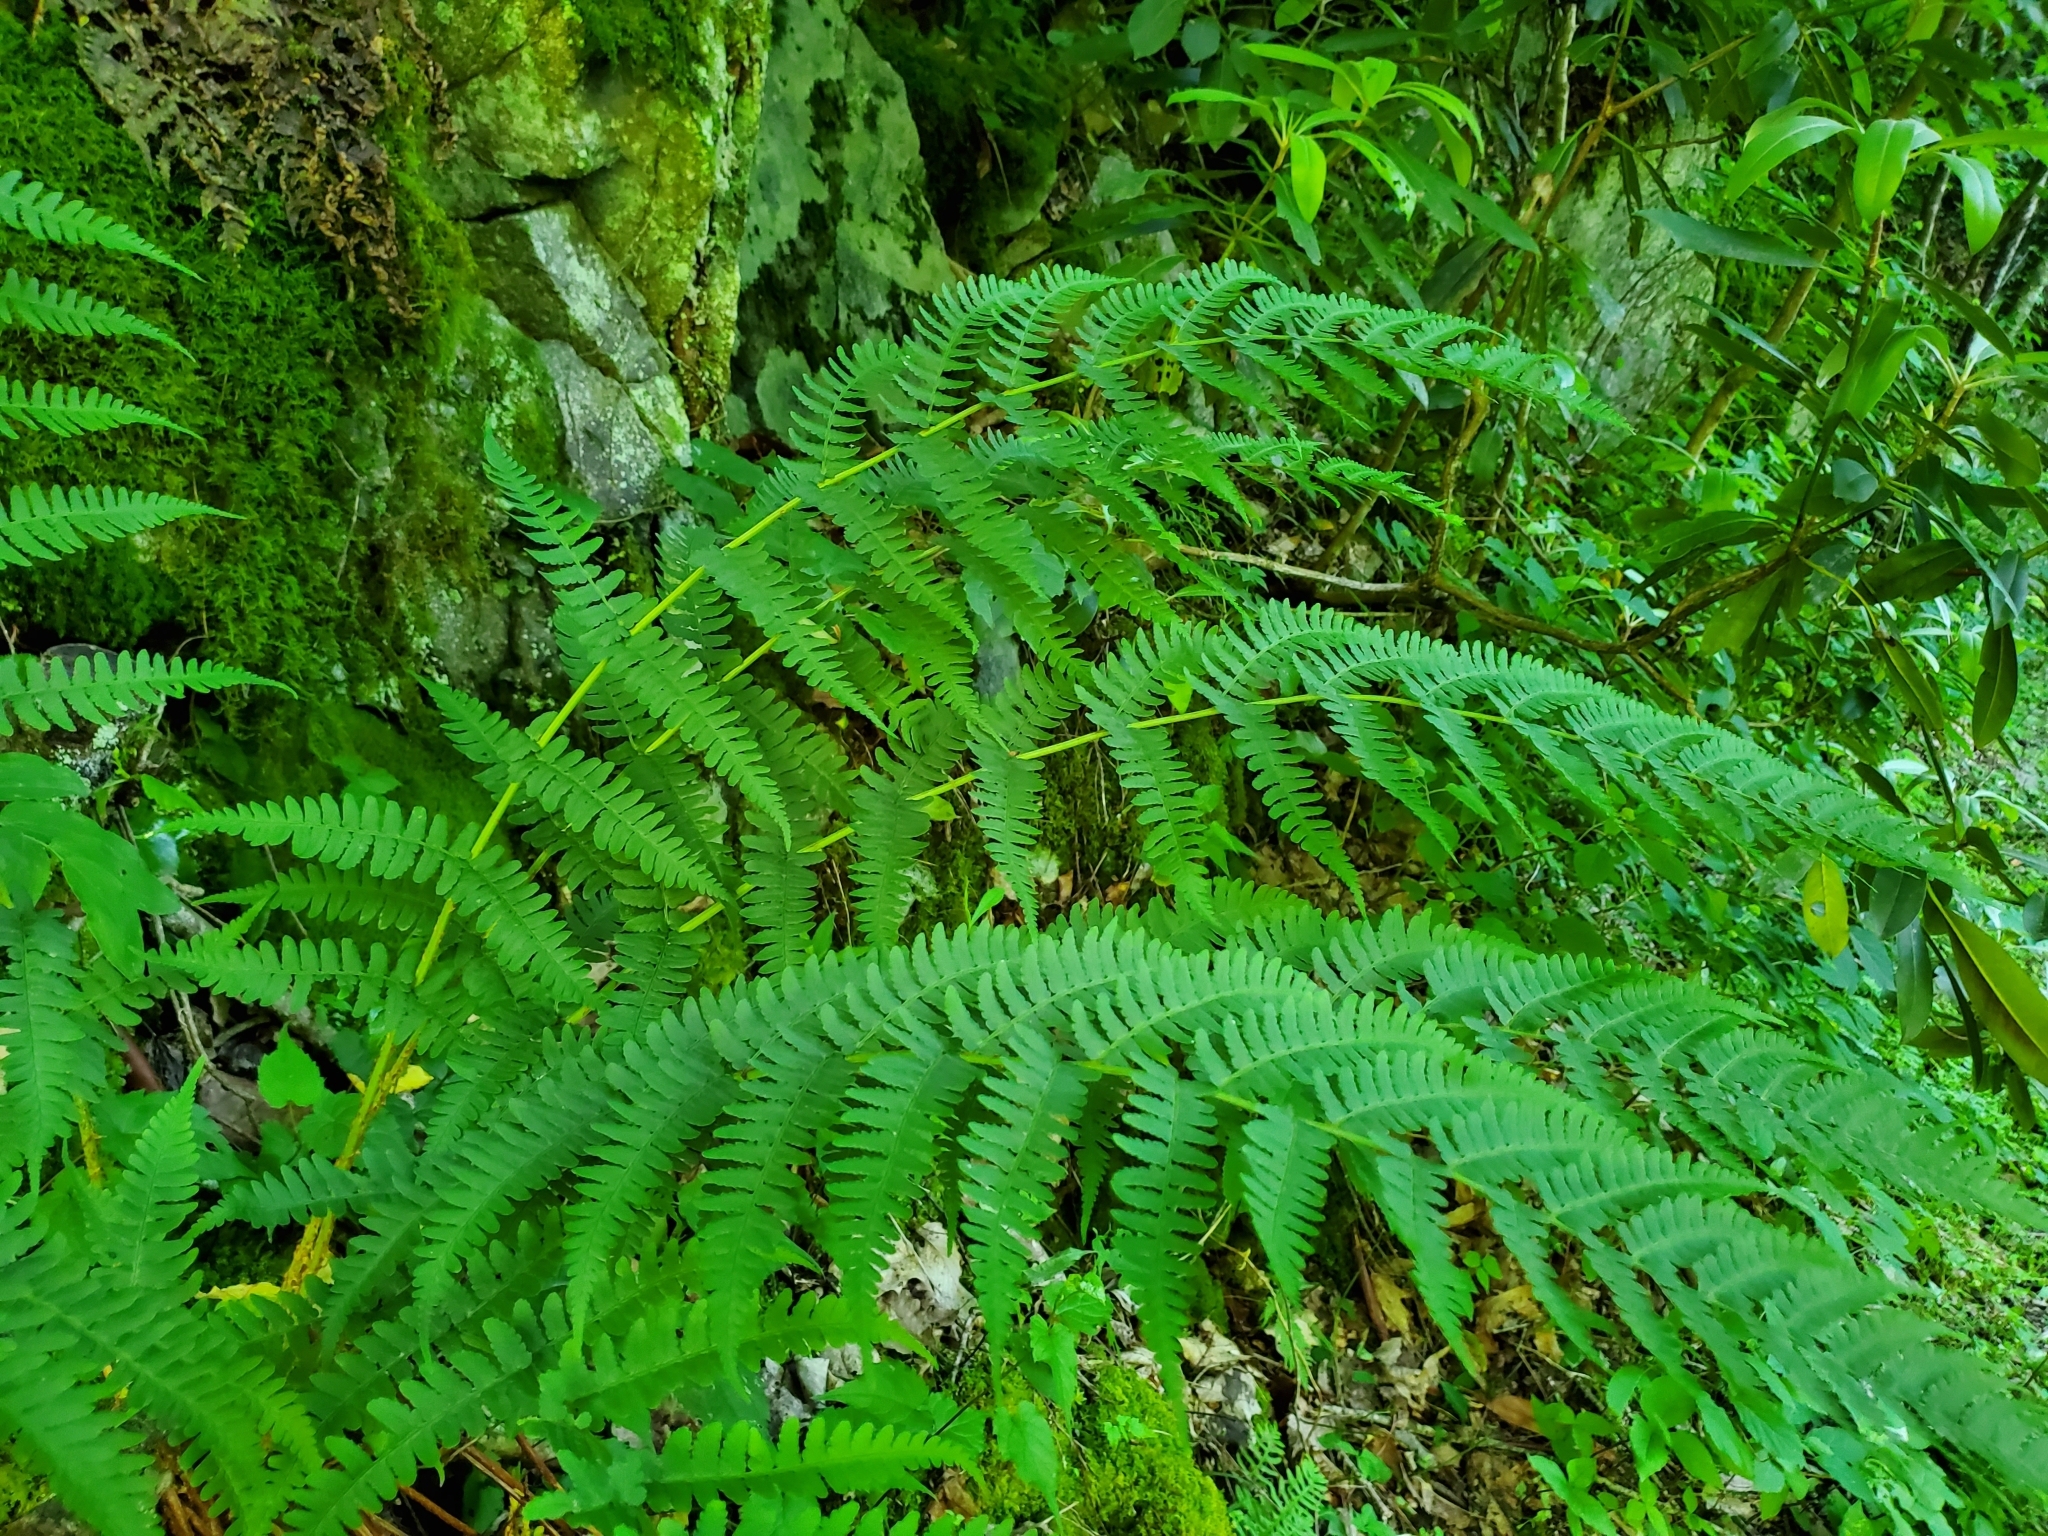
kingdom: Plantae
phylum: Tracheophyta
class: Polypodiopsida
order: Polypodiales
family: Dryopteridaceae
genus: Dryopteris
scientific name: Dryopteris marginalis
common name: Marginal wood fern
